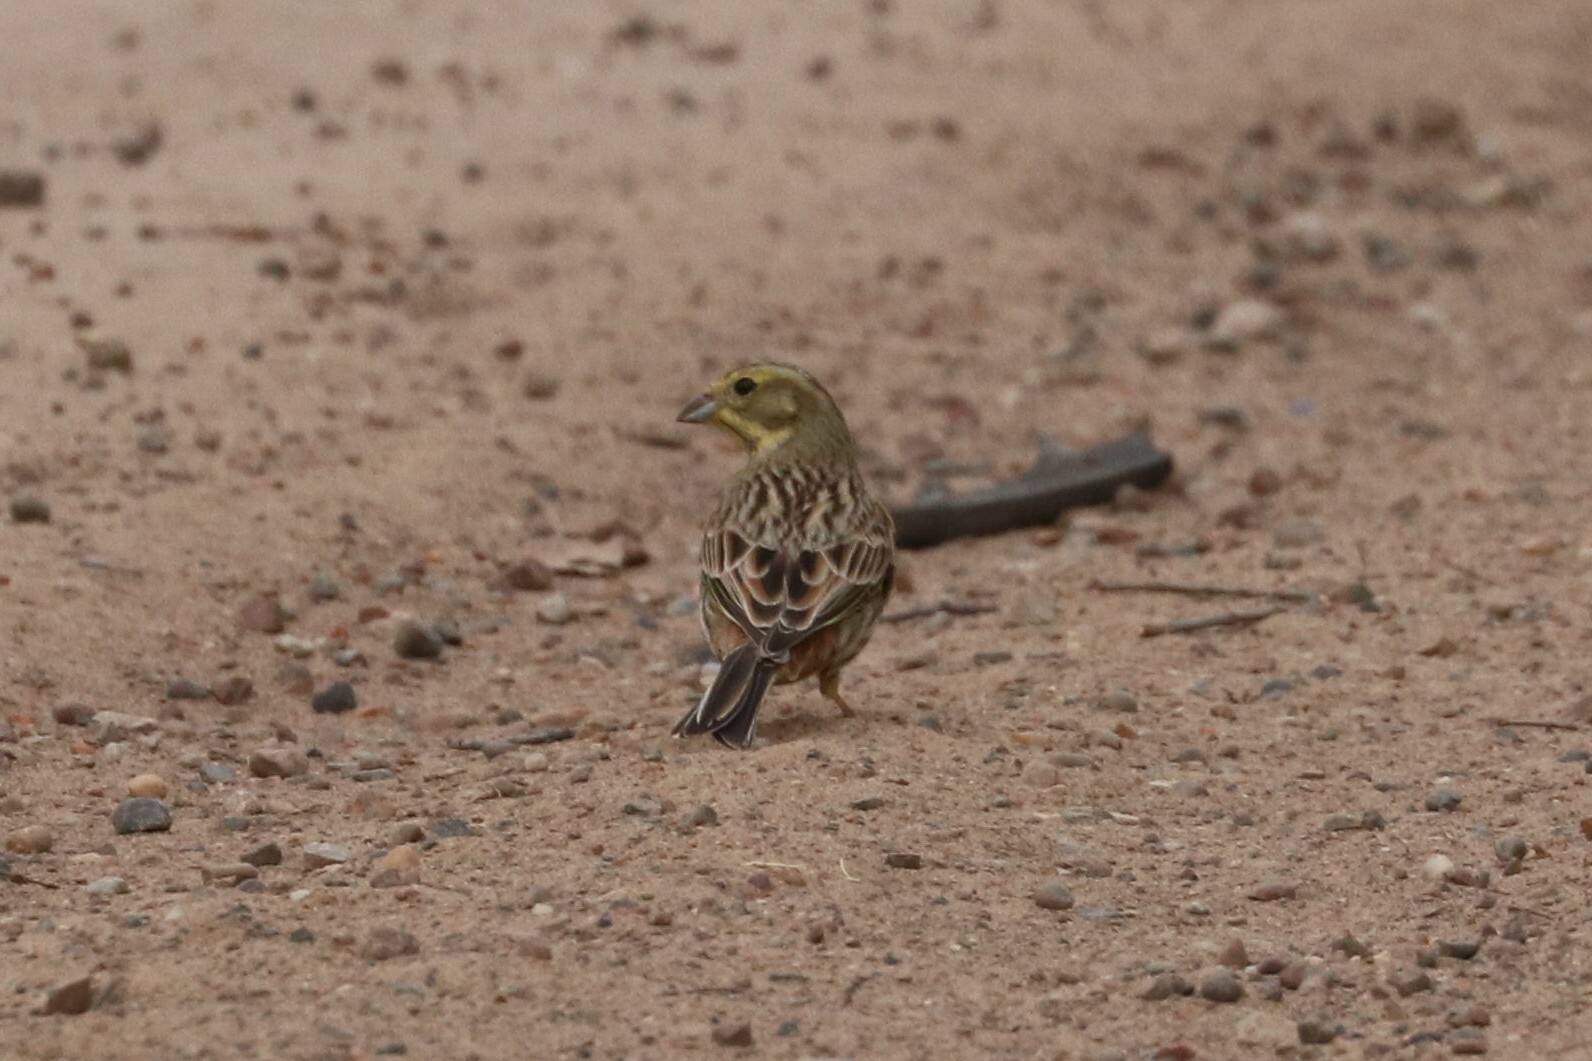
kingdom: Animalia
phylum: Chordata
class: Aves
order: Passeriformes
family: Emberizidae
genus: Emberiza
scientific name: Emberiza citrinella
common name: Yellowhammer
